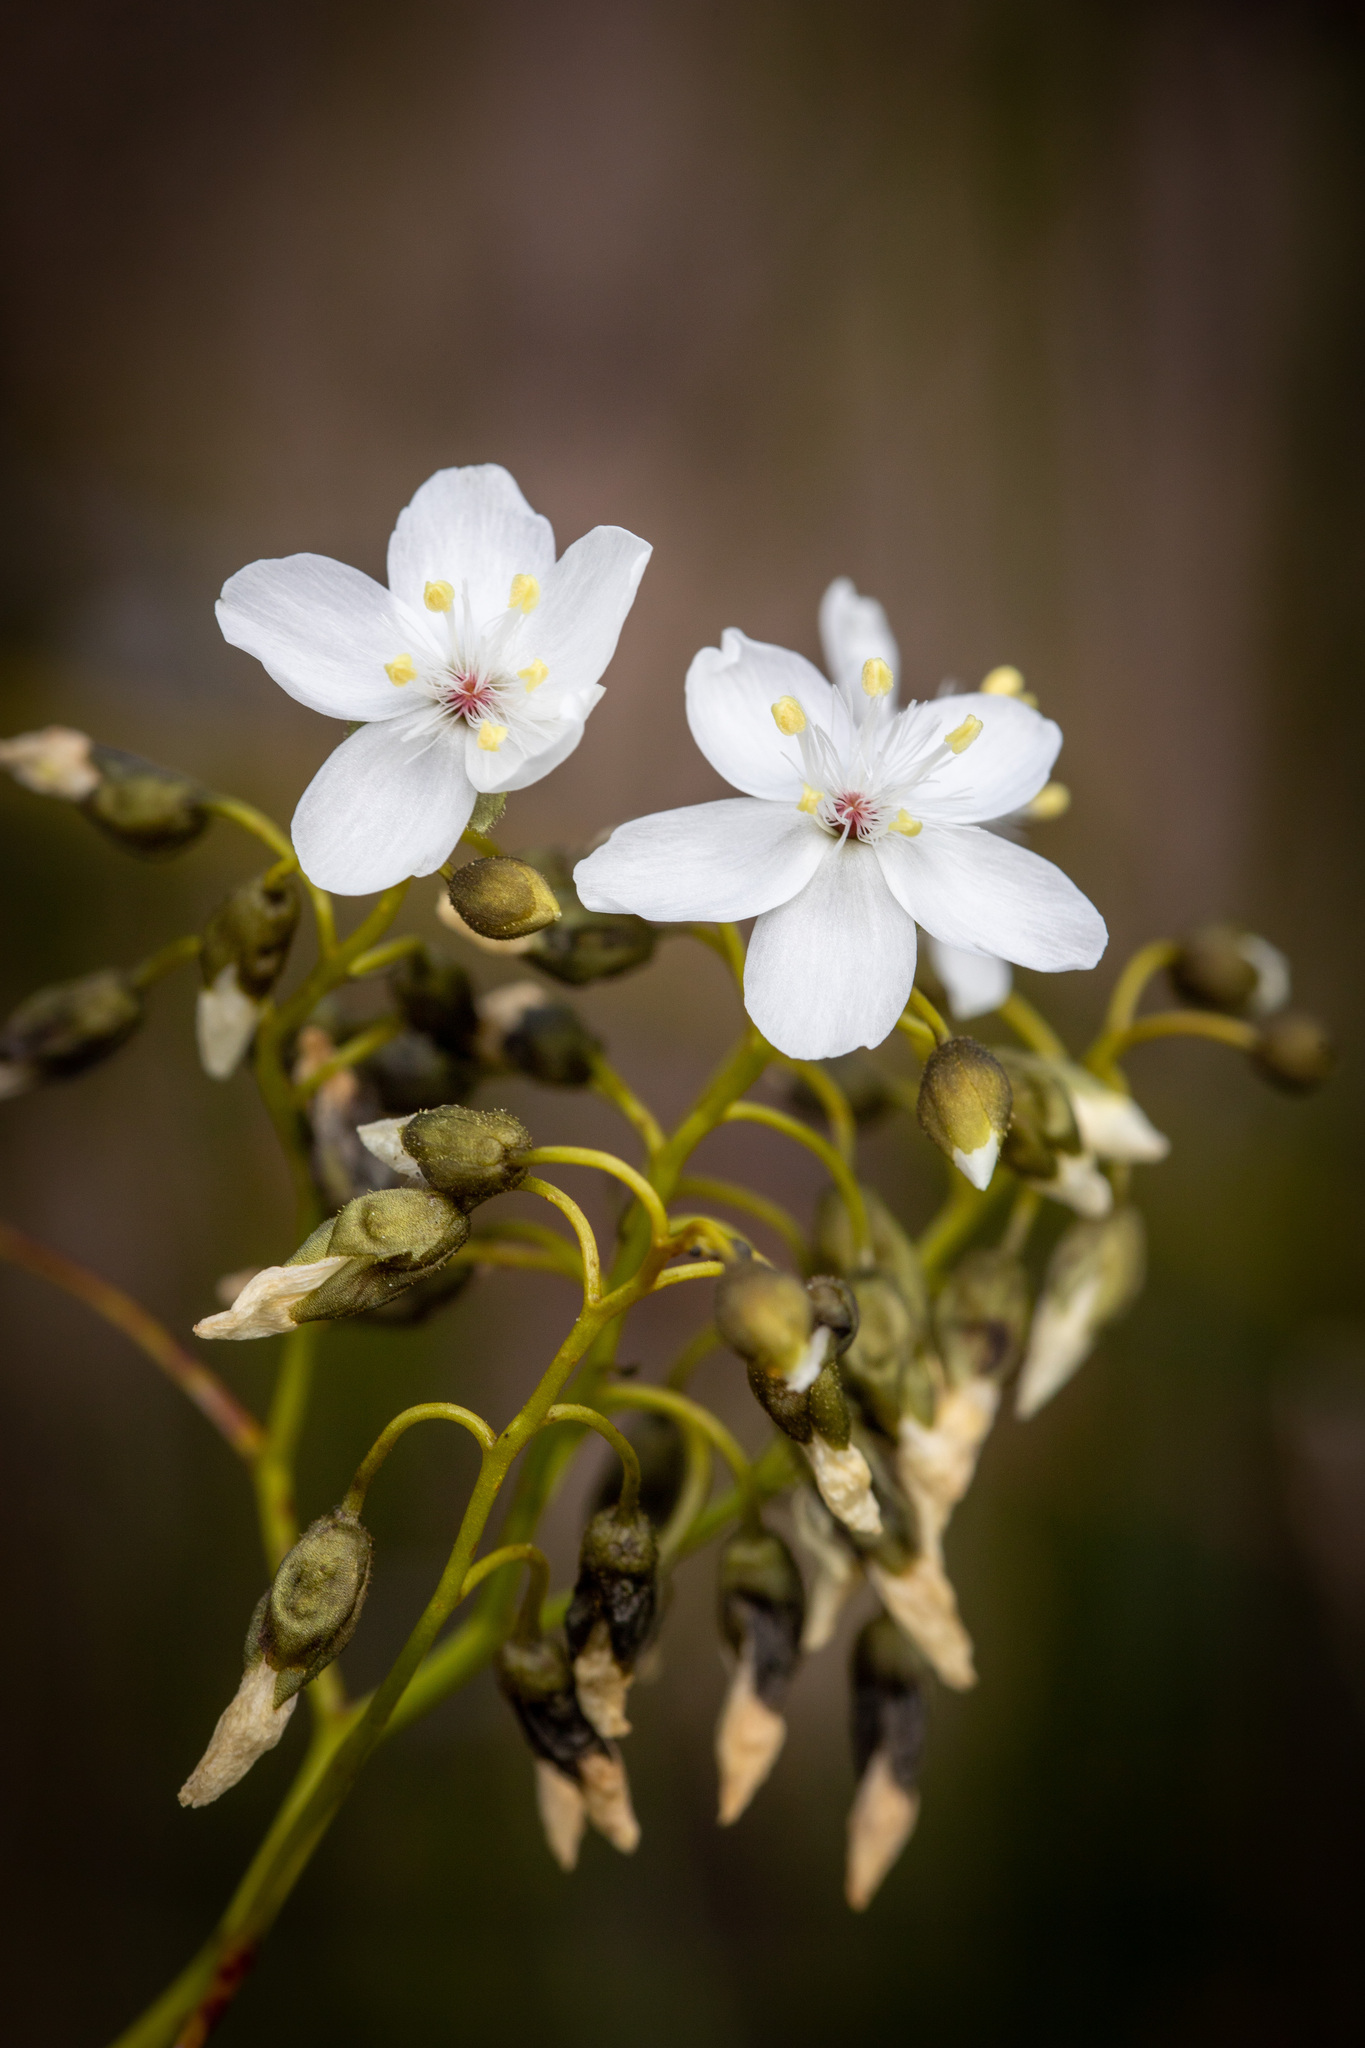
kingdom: Plantae
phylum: Tracheophyta
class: Magnoliopsida
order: Caryophyllales
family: Droseraceae
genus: Drosera
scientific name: Drosera pallida
